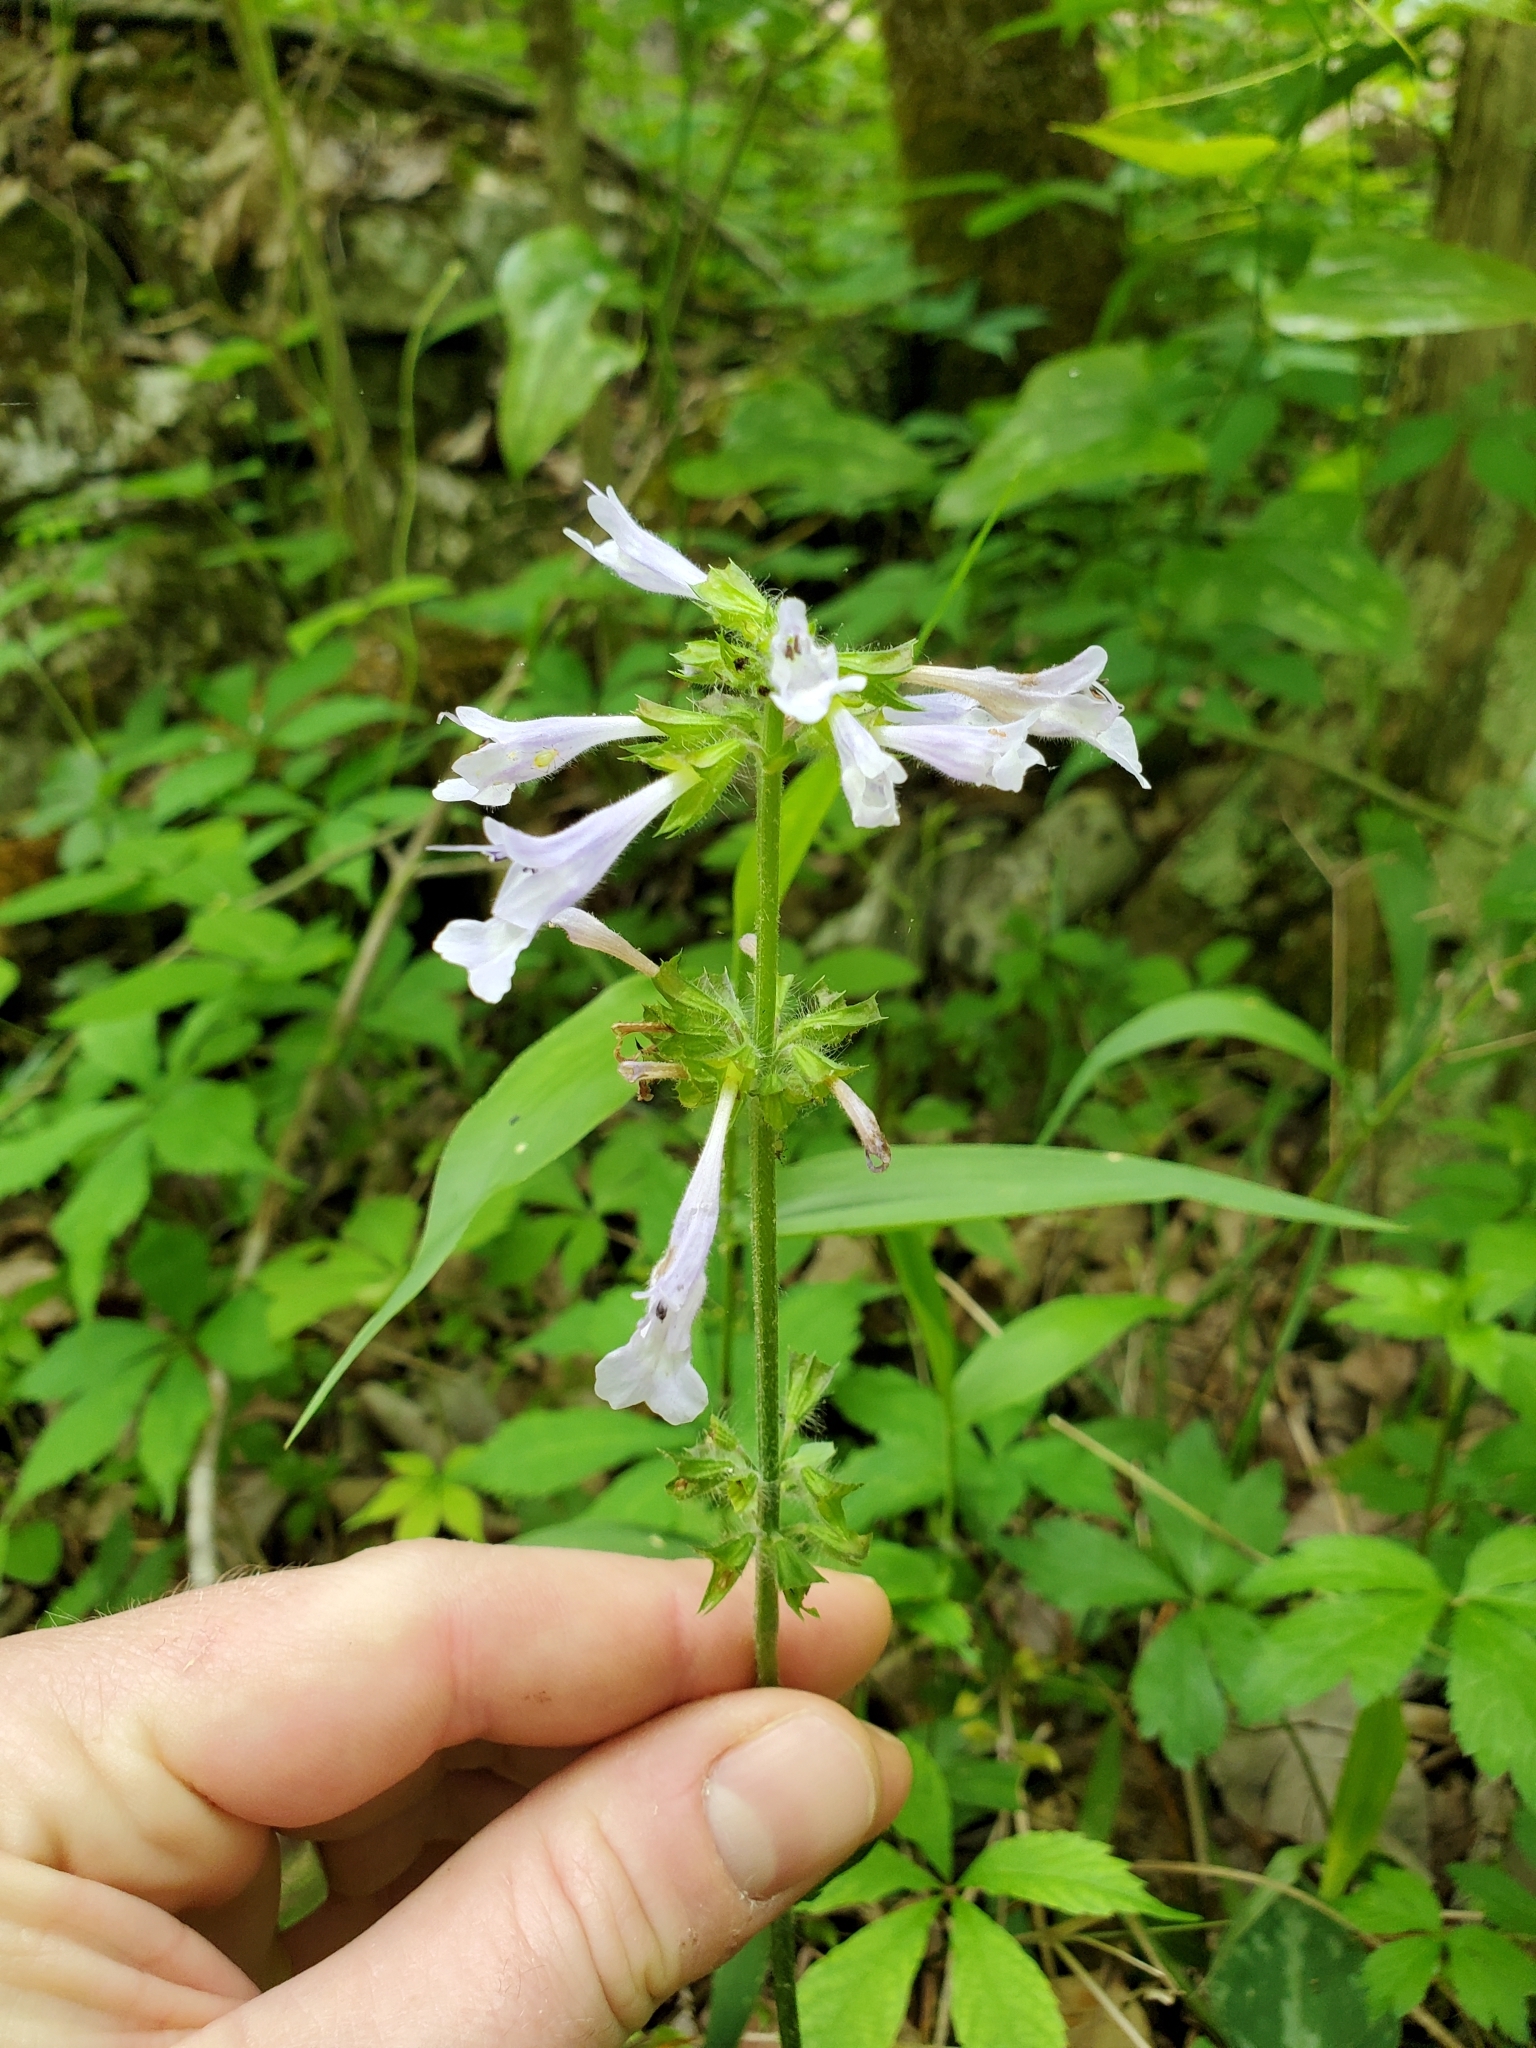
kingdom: Plantae
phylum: Tracheophyta
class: Magnoliopsida
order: Lamiales
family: Lamiaceae
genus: Salvia
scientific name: Salvia lyrata
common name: Cancerweed
